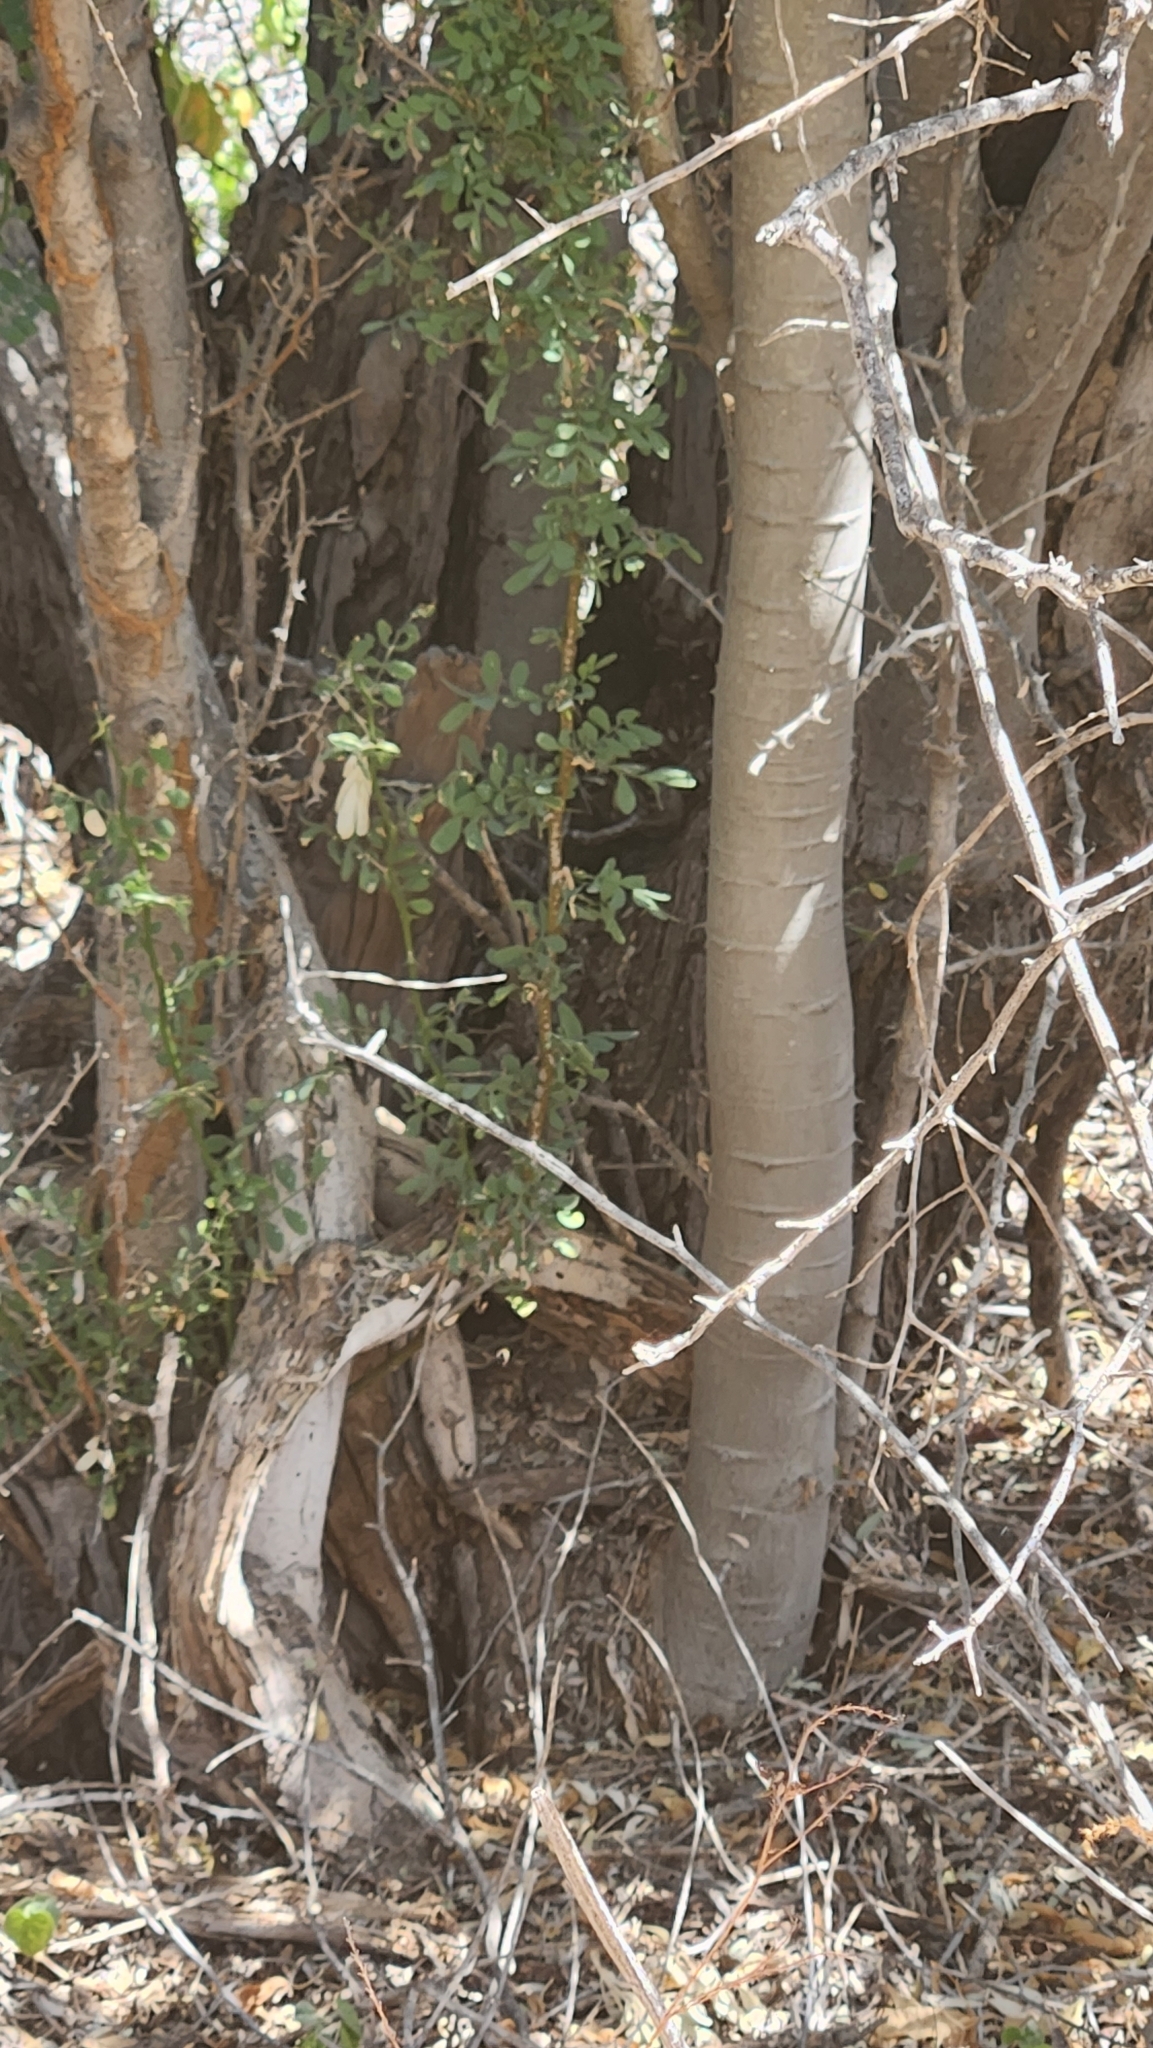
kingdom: Plantae
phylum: Tracheophyta
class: Magnoliopsida
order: Fabales
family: Fabaceae
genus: Olneya
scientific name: Olneya tesota
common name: Desert ironwood
